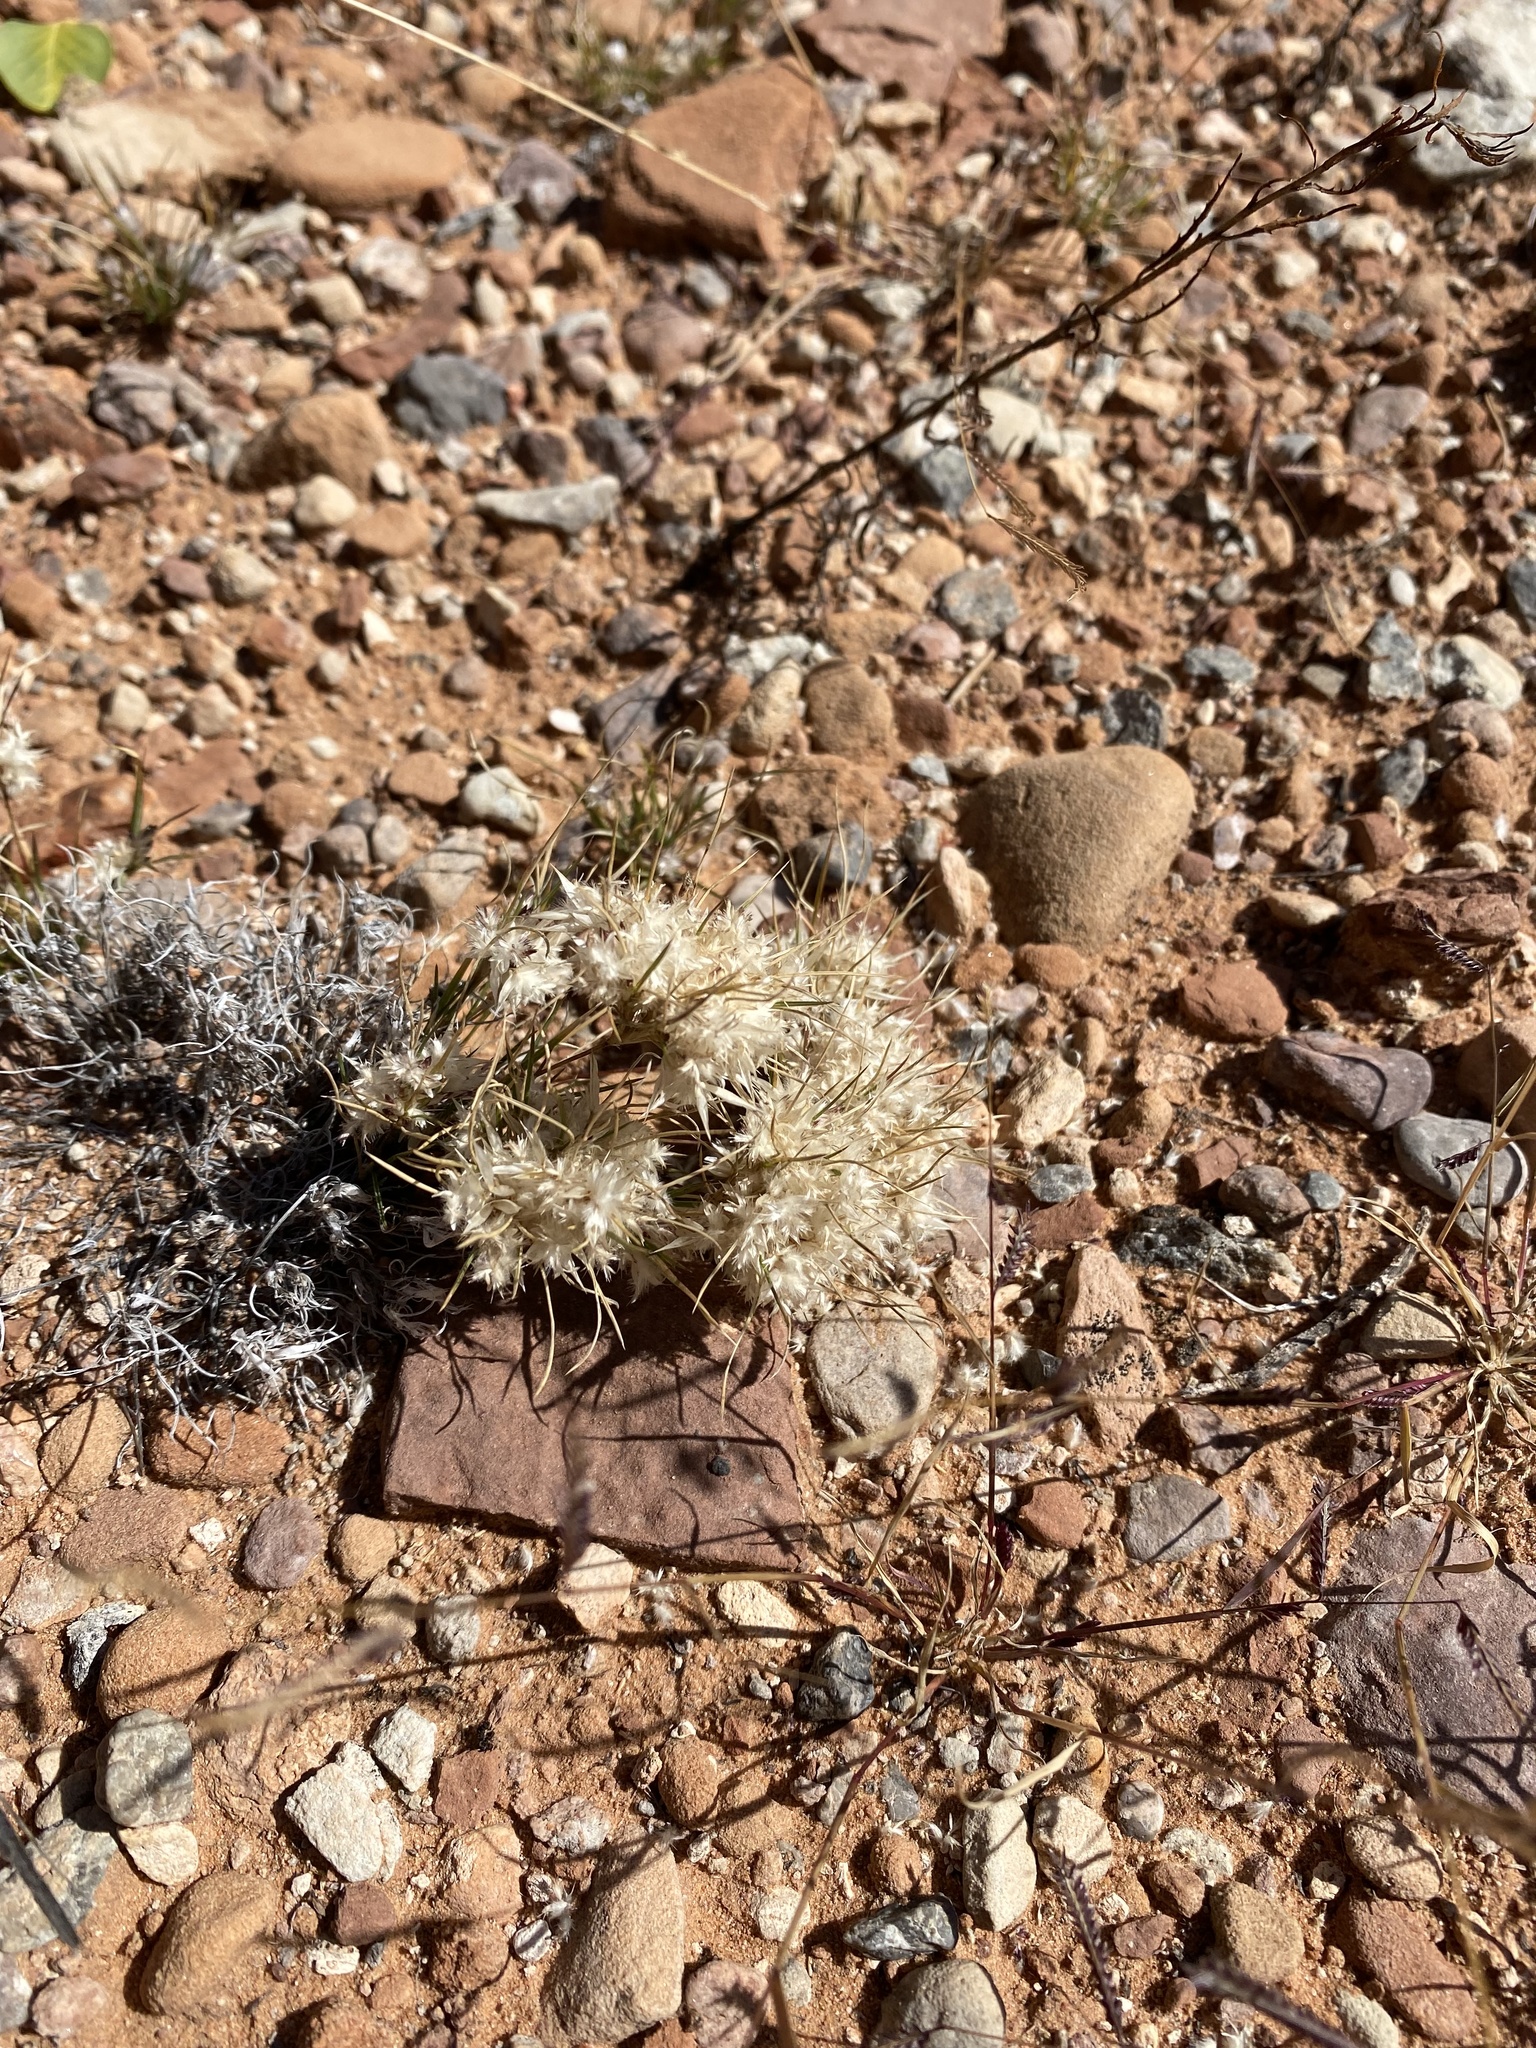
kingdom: Plantae
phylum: Tracheophyta
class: Liliopsida
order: Poales
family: Poaceae
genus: Dasyochloa
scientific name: Dasyochloa pulchella
